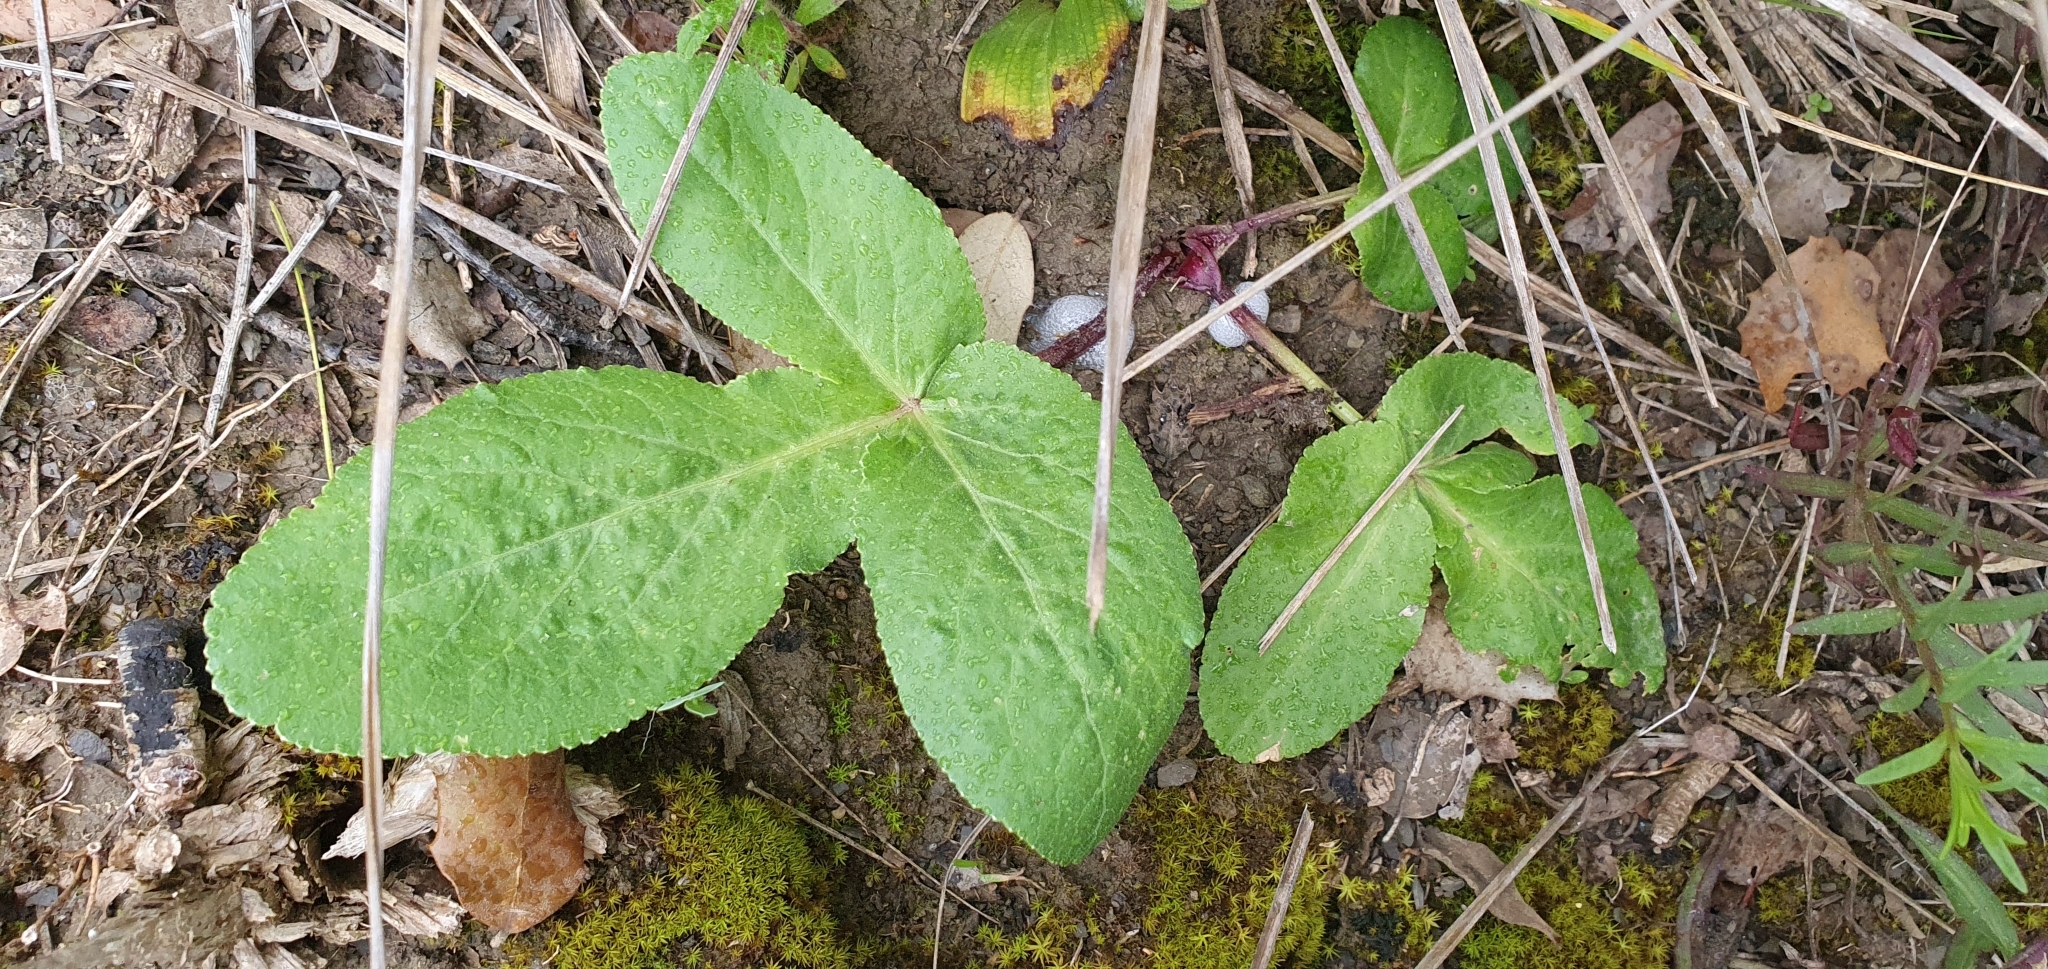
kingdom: Plantae
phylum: Tracheophyta
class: Magnoliopsida
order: Apiales
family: Apiaceae
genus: Magydaris
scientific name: Magydaris pastinacea
